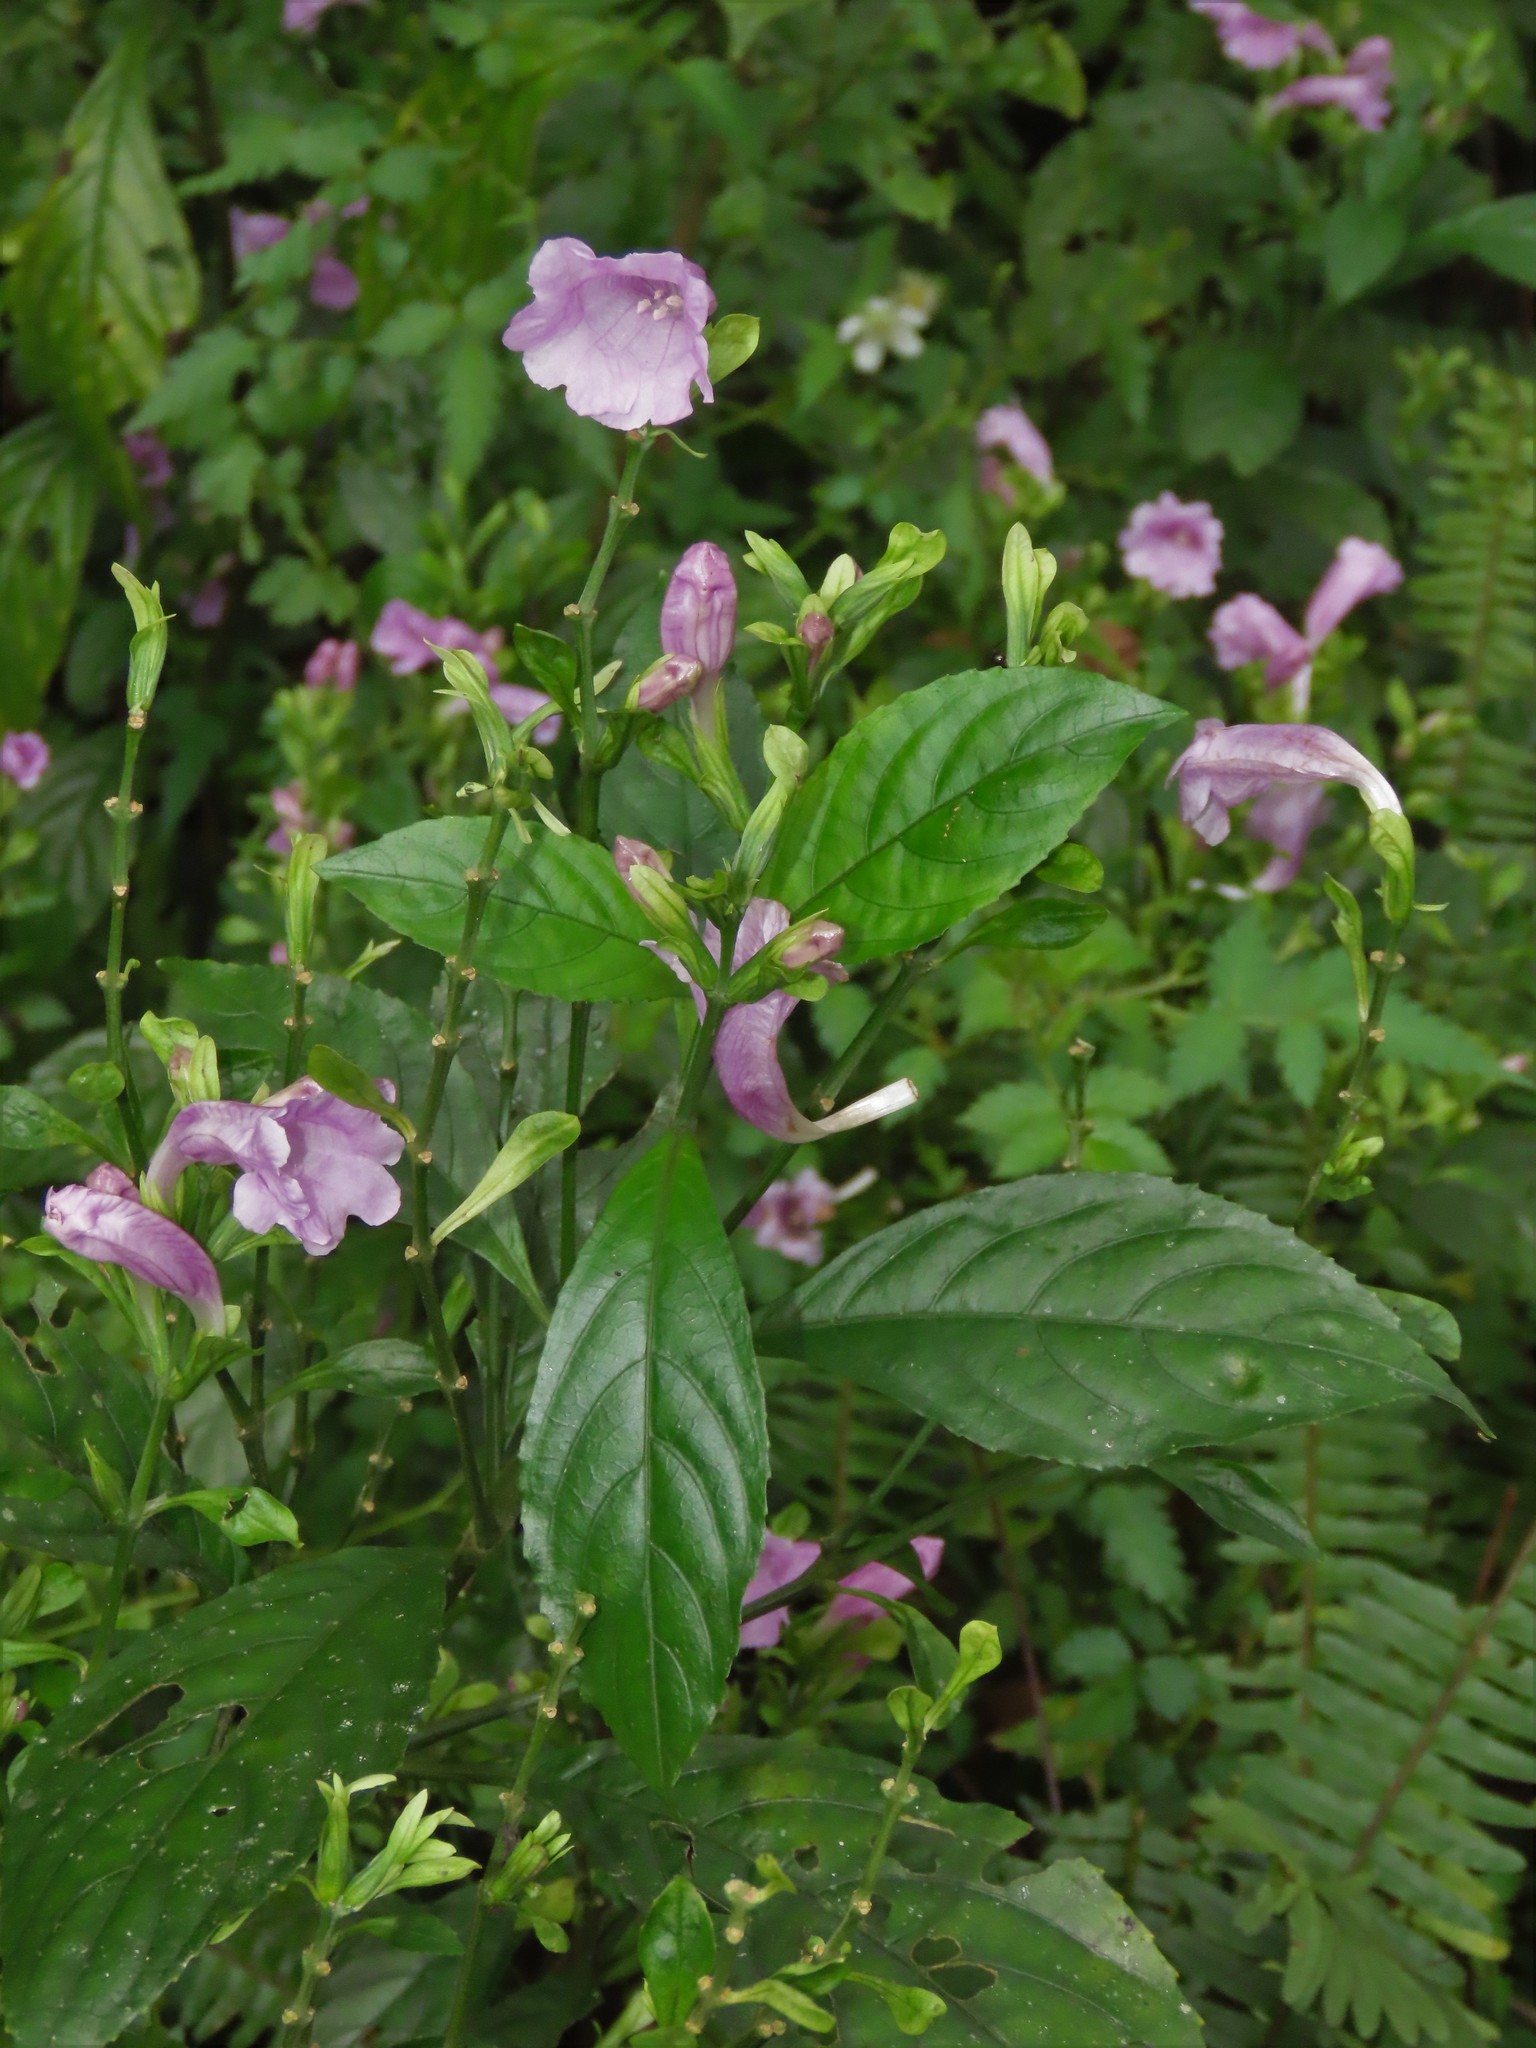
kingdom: Plantae
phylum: Tracheophyta
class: Magnoliopsida
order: Lamiales
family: Acanthaceae
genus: Strobilanthes
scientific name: Strobilanthes cusia
